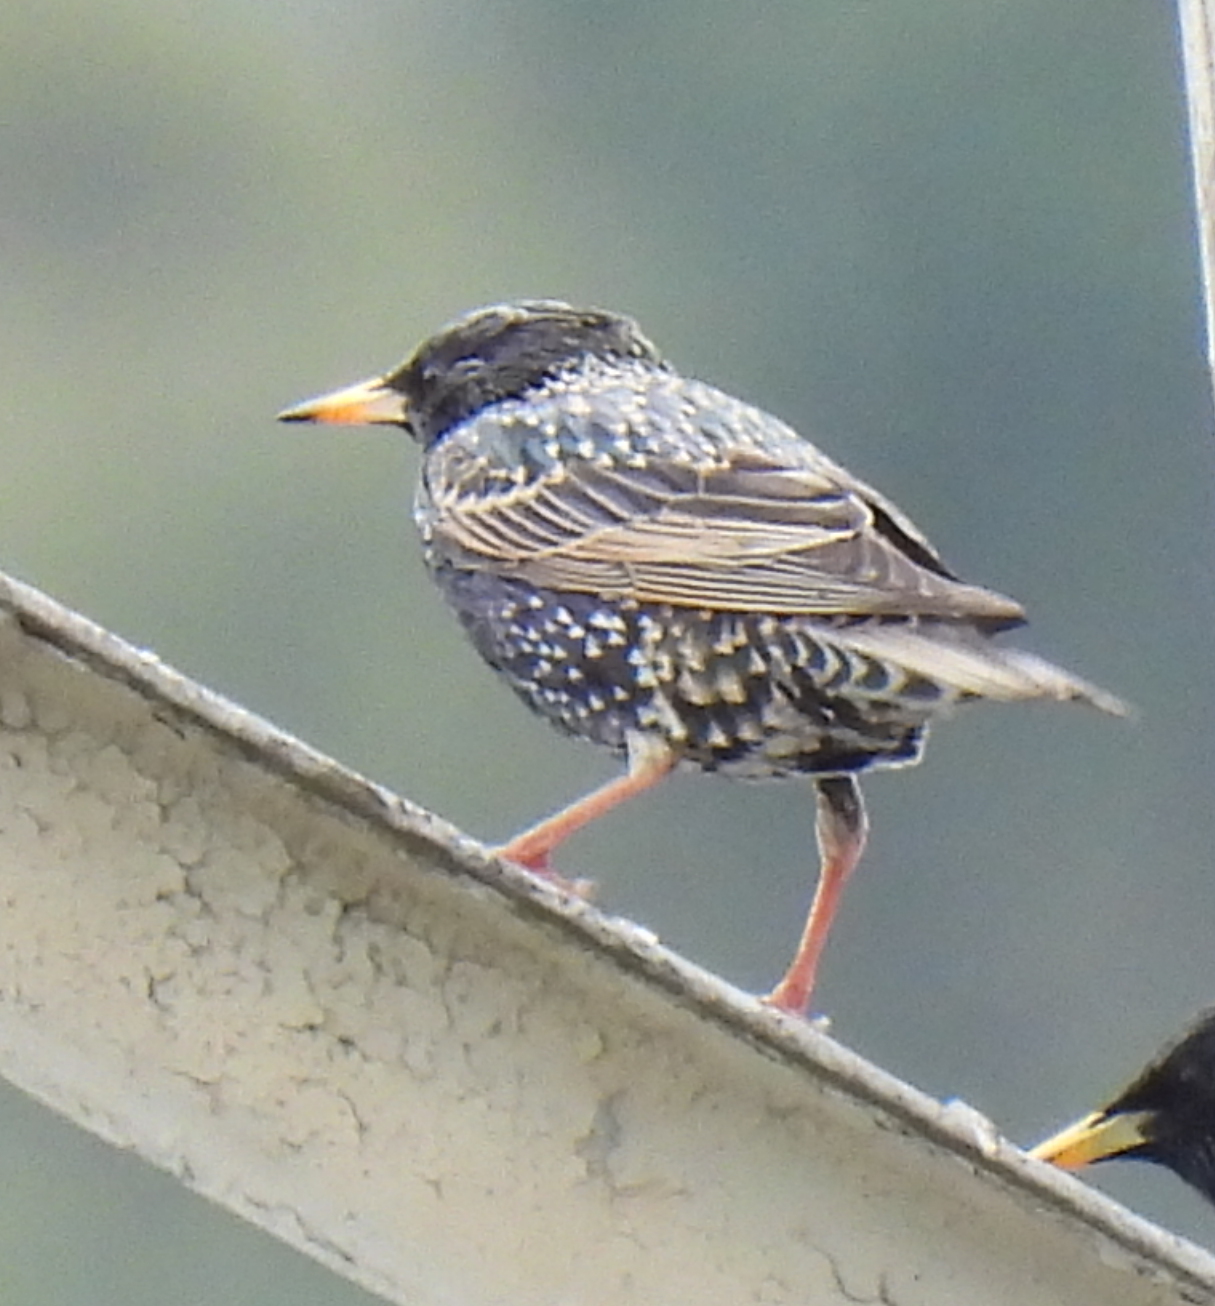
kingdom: Animalia
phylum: Chordata
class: Aves
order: Passeriformes
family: Sturnidae
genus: Sturnus
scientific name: Sturnus vulgaris
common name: Common starling
